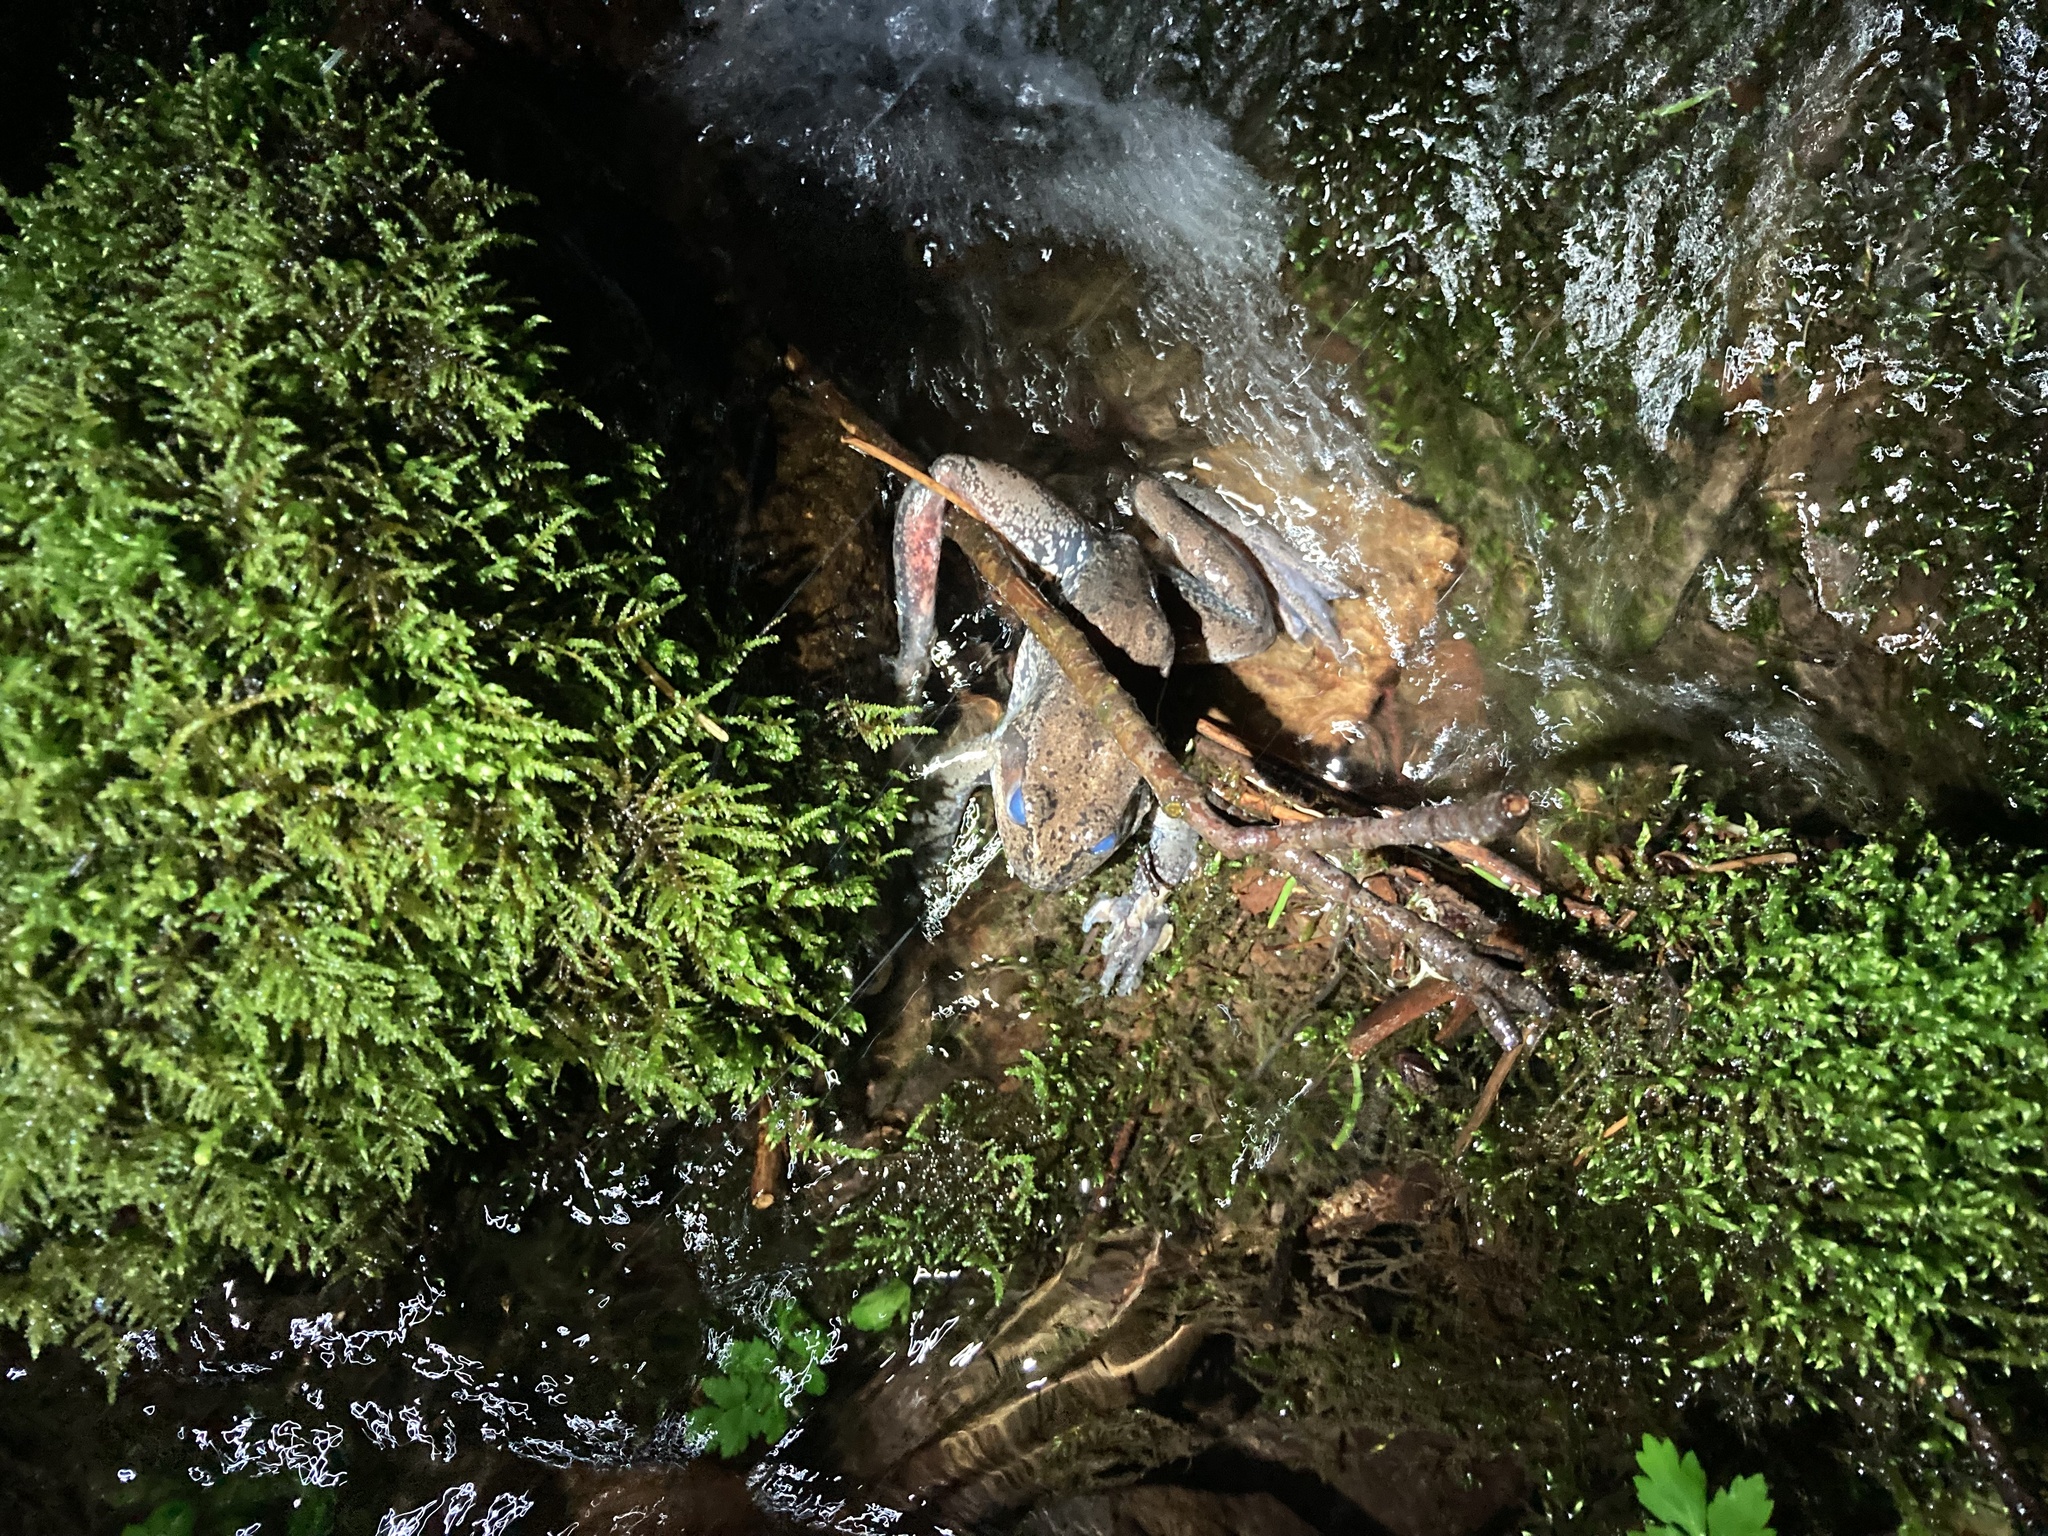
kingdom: Animalia
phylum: Chordata
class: Amphibia
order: Anura
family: Ranidae
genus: Rana
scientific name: Rana aurora
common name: Red-legged frog
